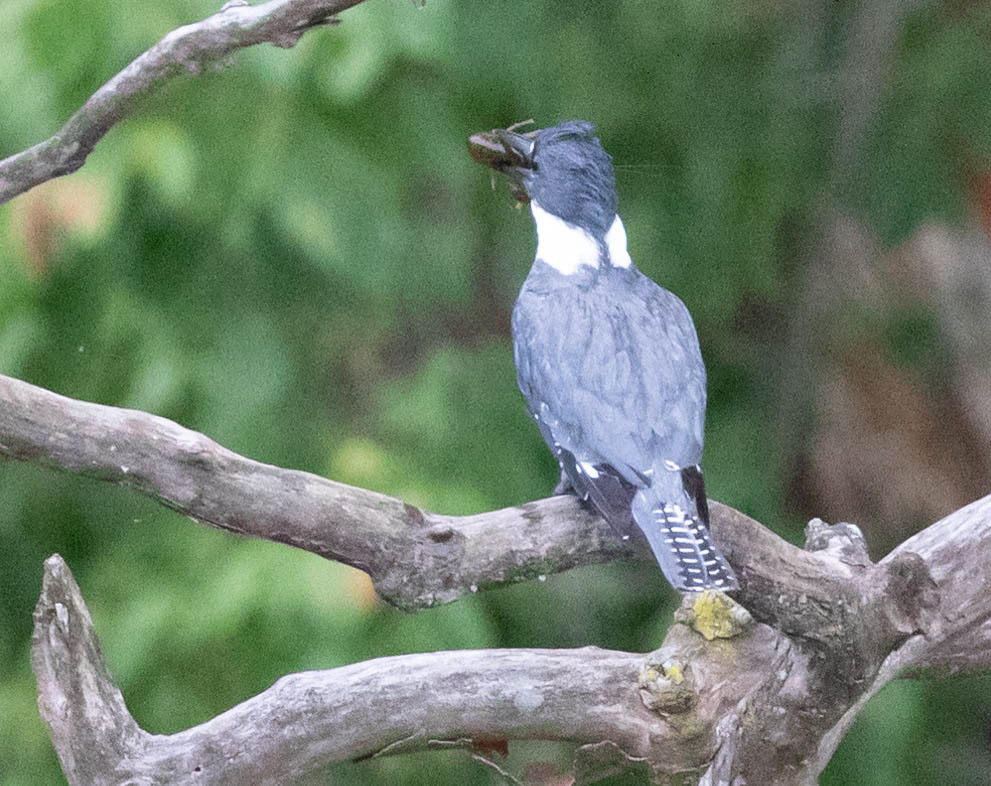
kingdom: Animalia
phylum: Chordata
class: Aves
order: Coraciiformes
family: Alcedinidae
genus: Megaceryle
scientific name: Megaceryle alcyon
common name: Belted kingfisher
